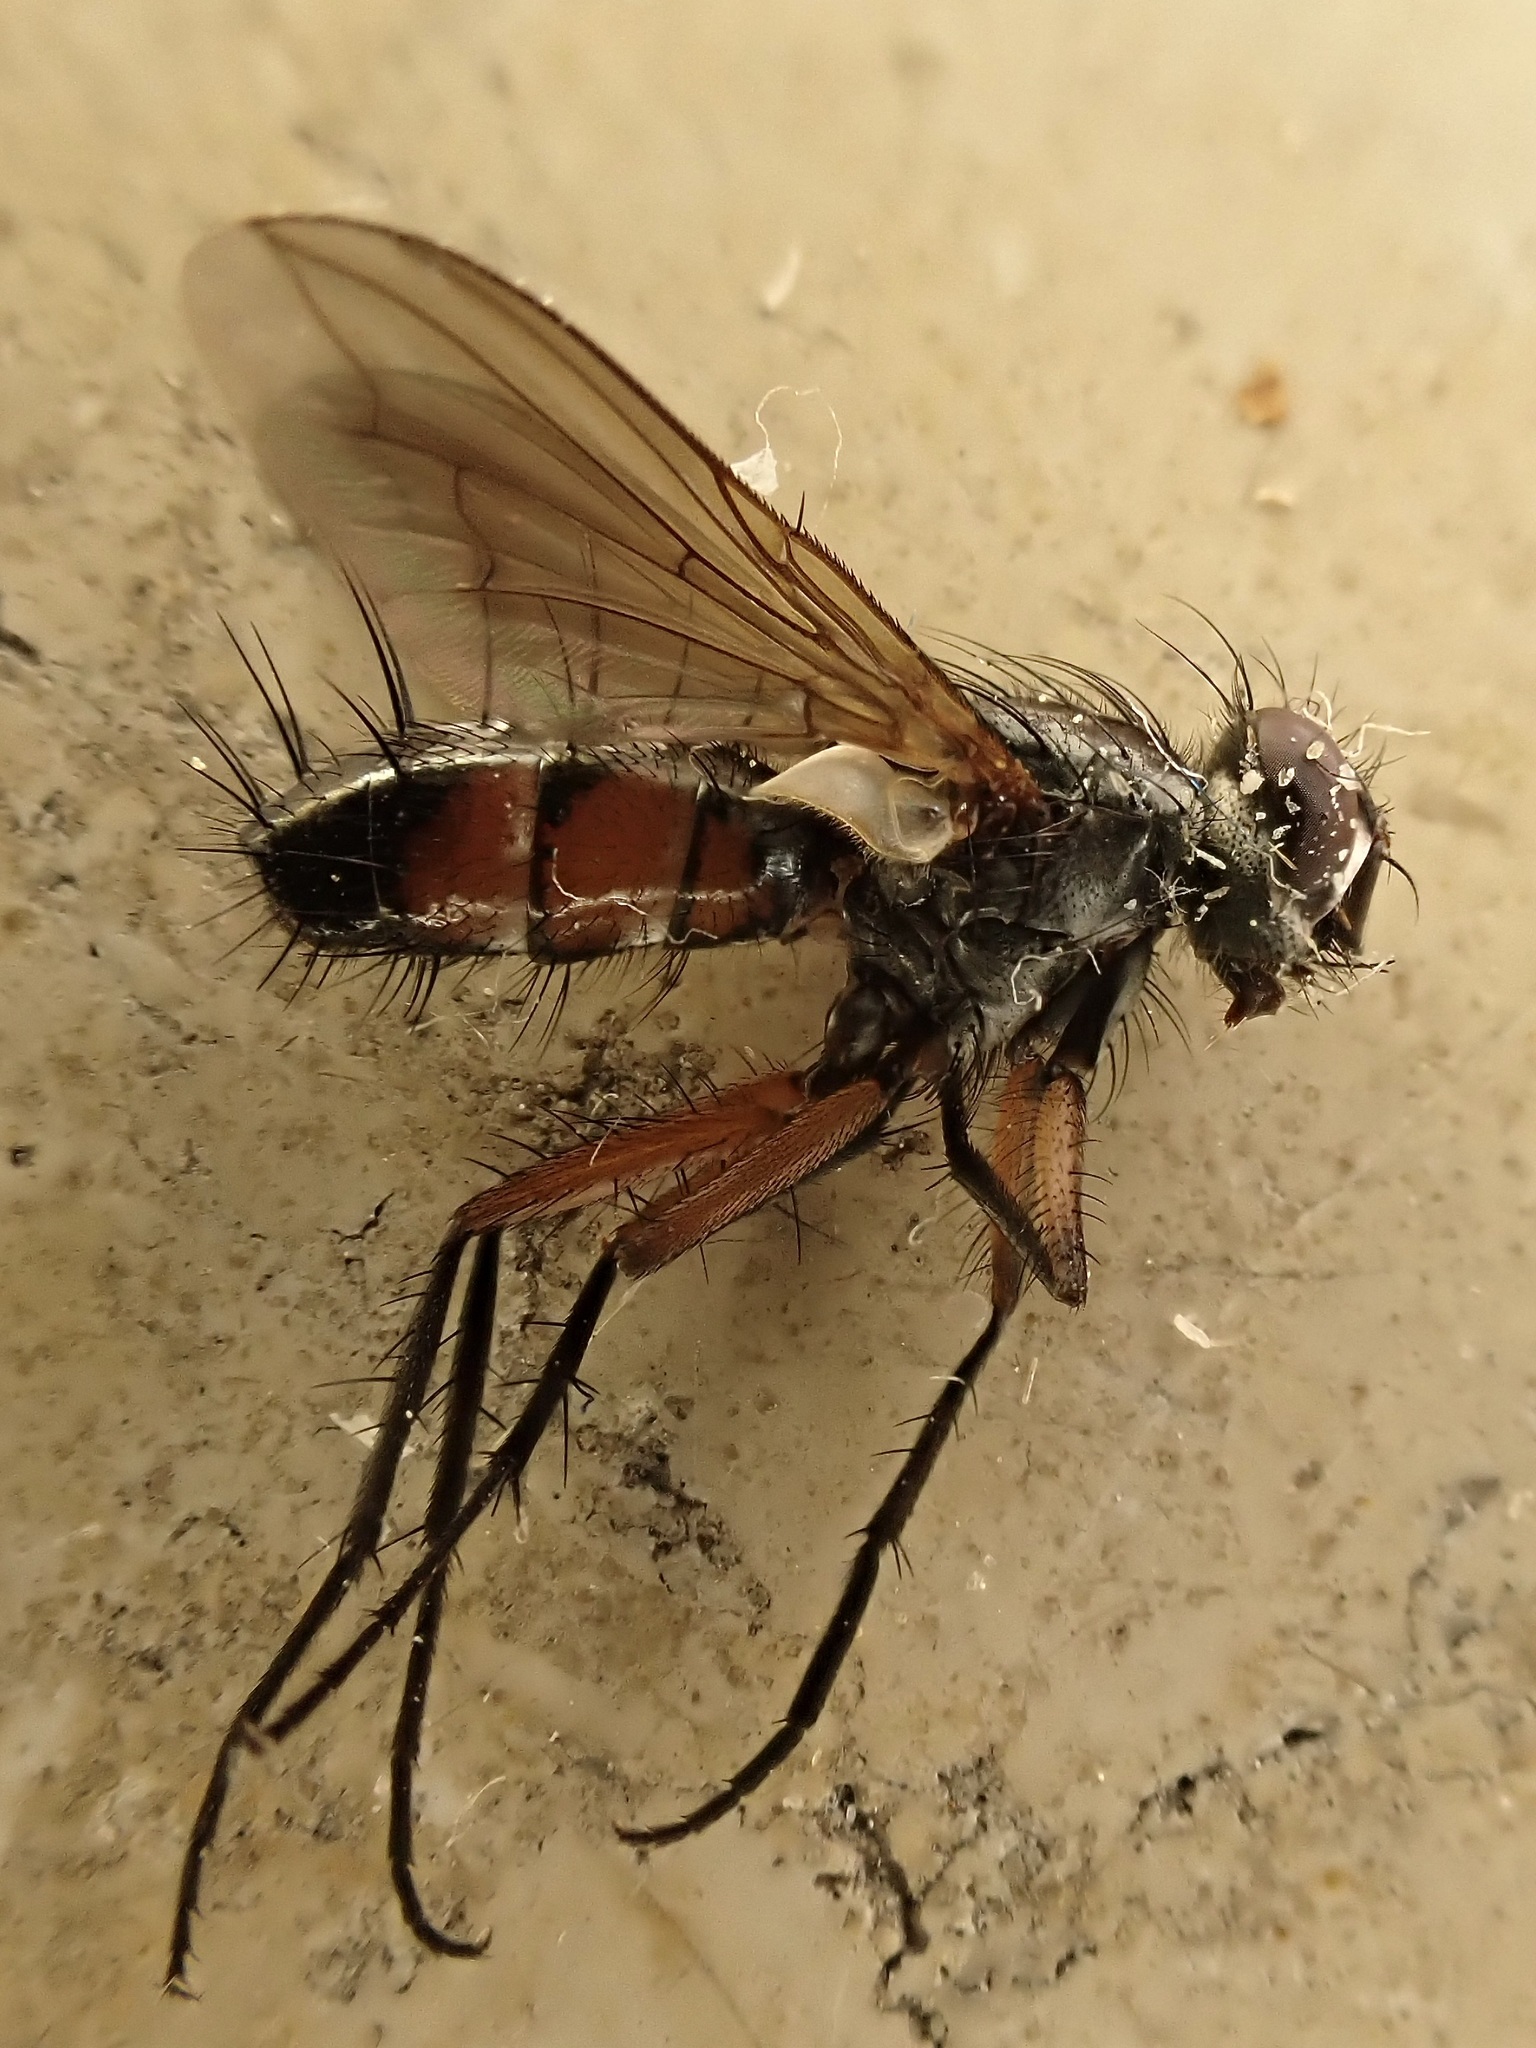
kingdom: Animalia
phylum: Arthropoda
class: Insecta
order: Diptera
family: Tachinidae
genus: Mintho
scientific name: Mintho rufiventris
